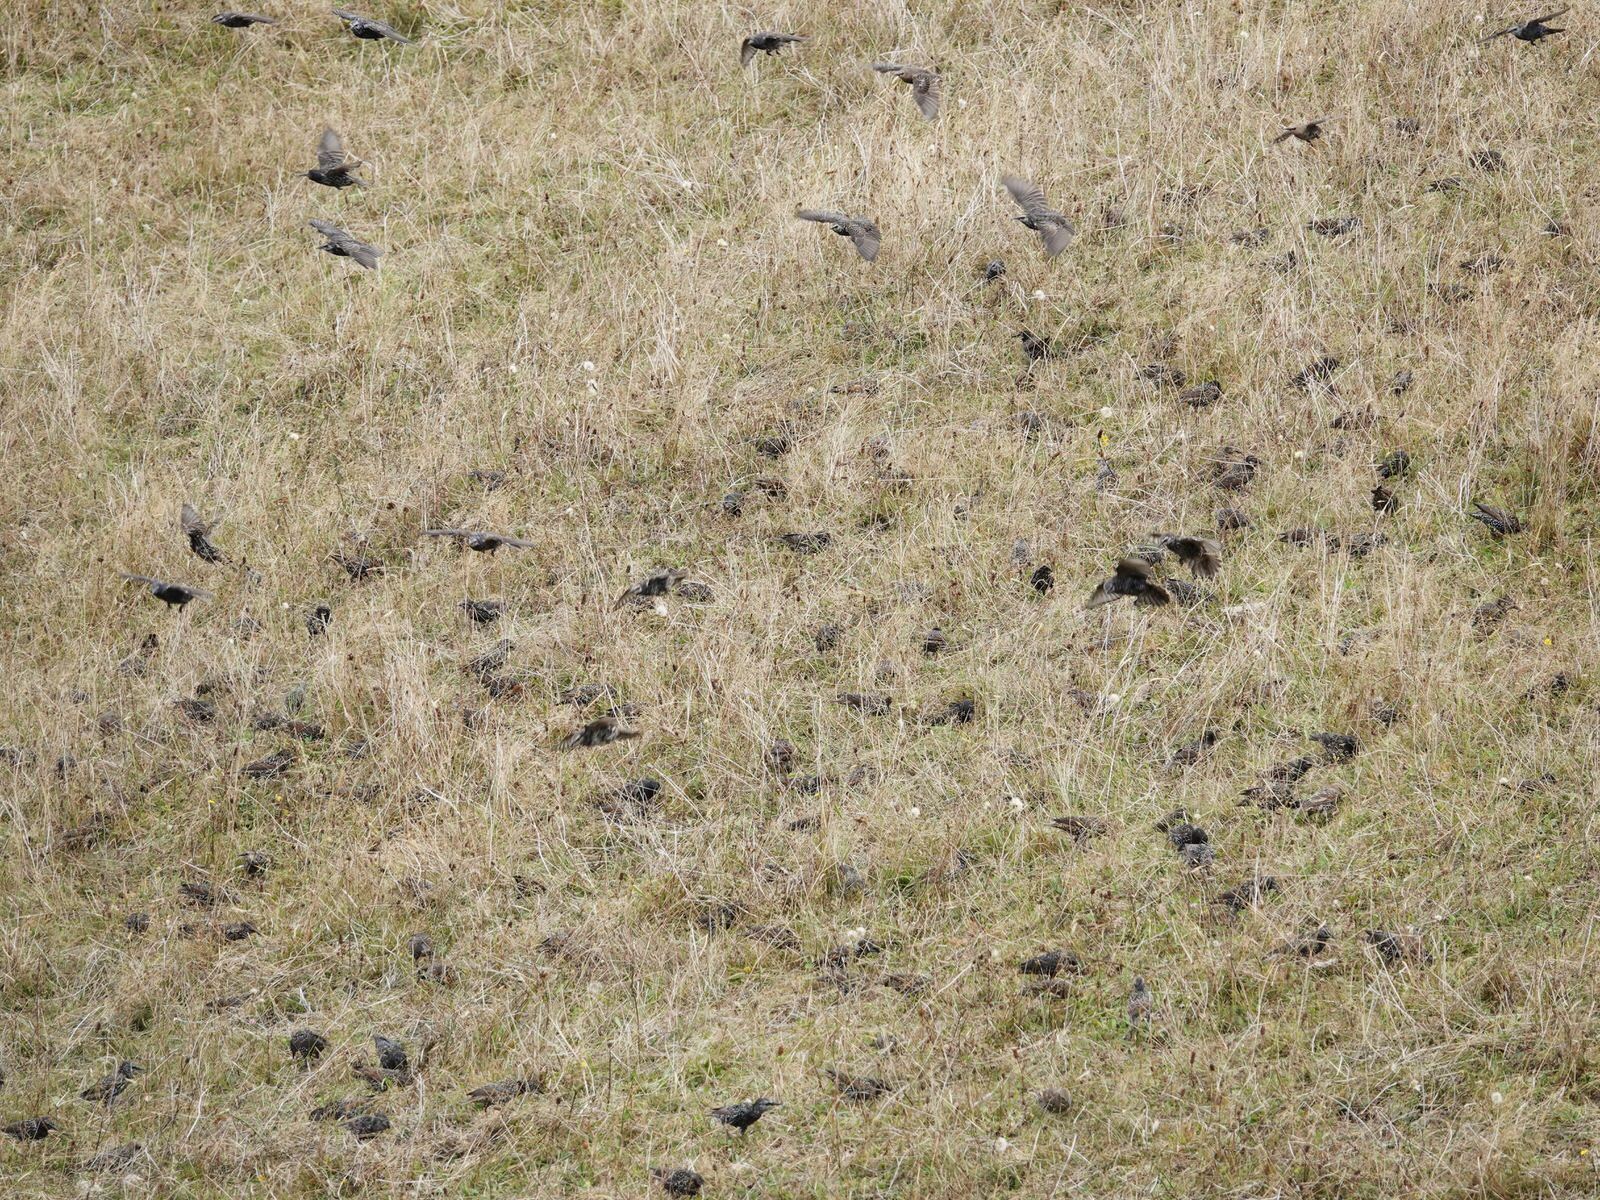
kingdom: Animalia
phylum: Chordata
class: Aves
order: Passeriformes
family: Sturnidae
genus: Sturnus
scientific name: Sturnus vulgaris
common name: Common starling
